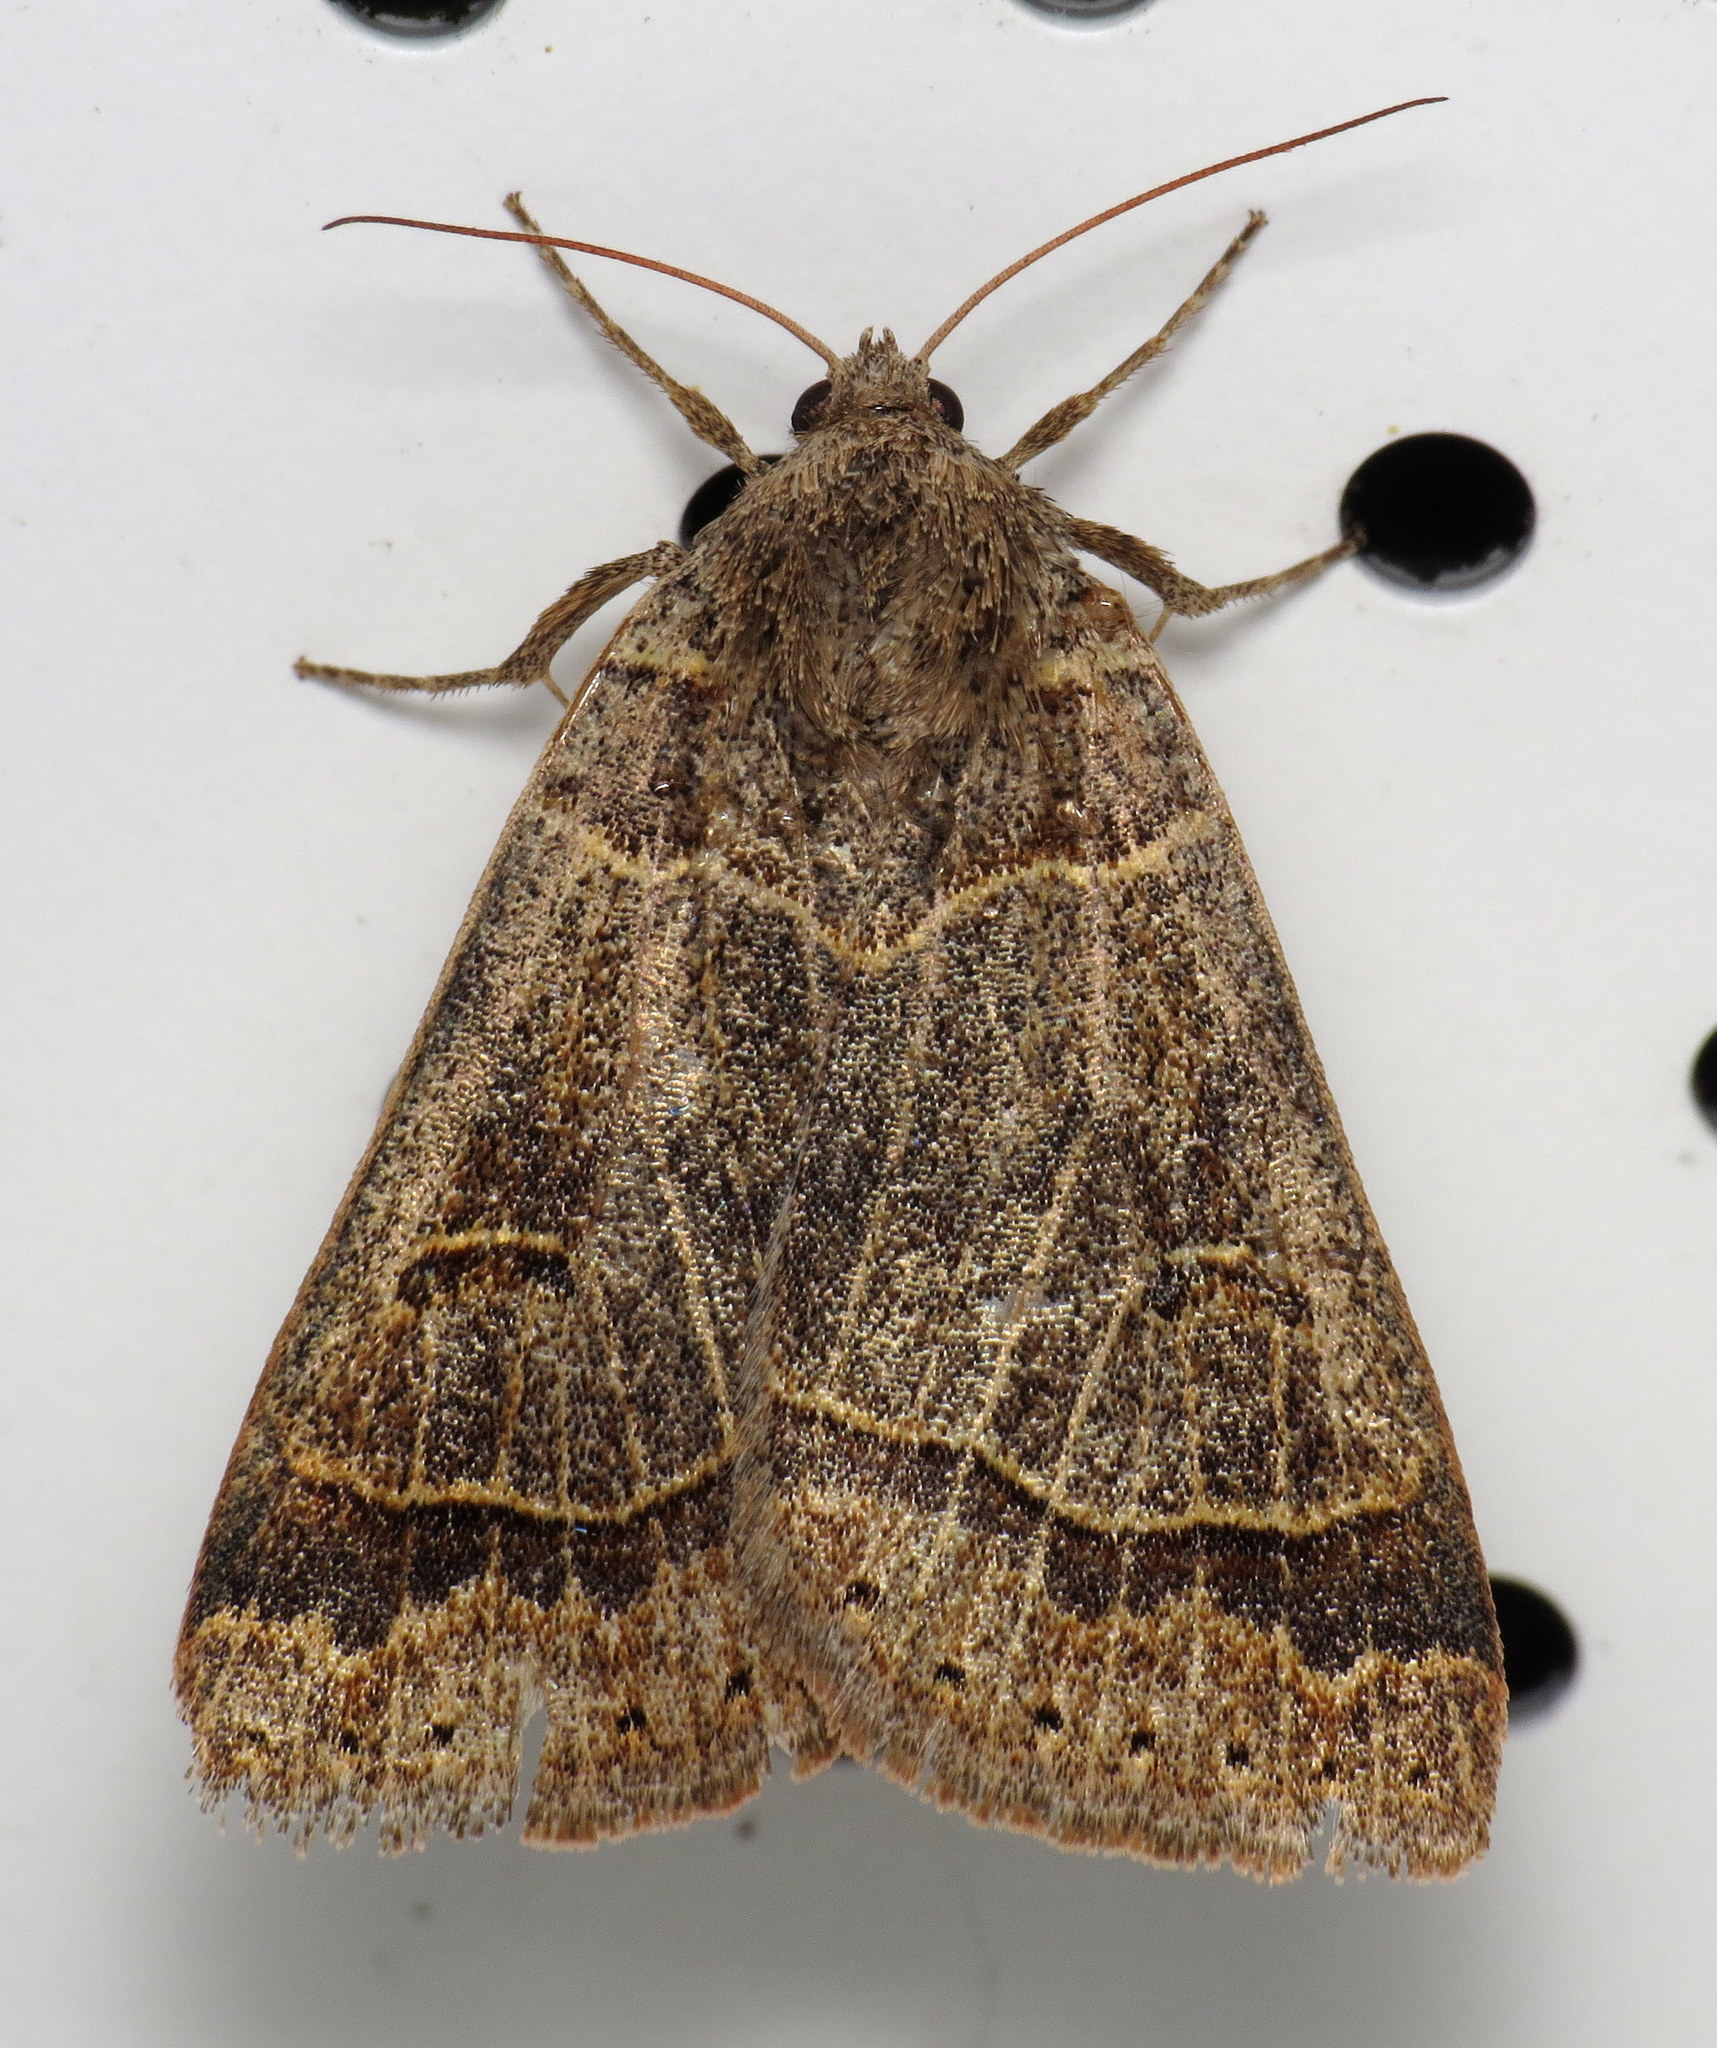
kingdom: Animalia
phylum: Arthropoda
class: Insecta
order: Lepidoptera
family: Erebidae
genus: Phoberia
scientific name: Phoberia atomaris
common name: Common oak moth
